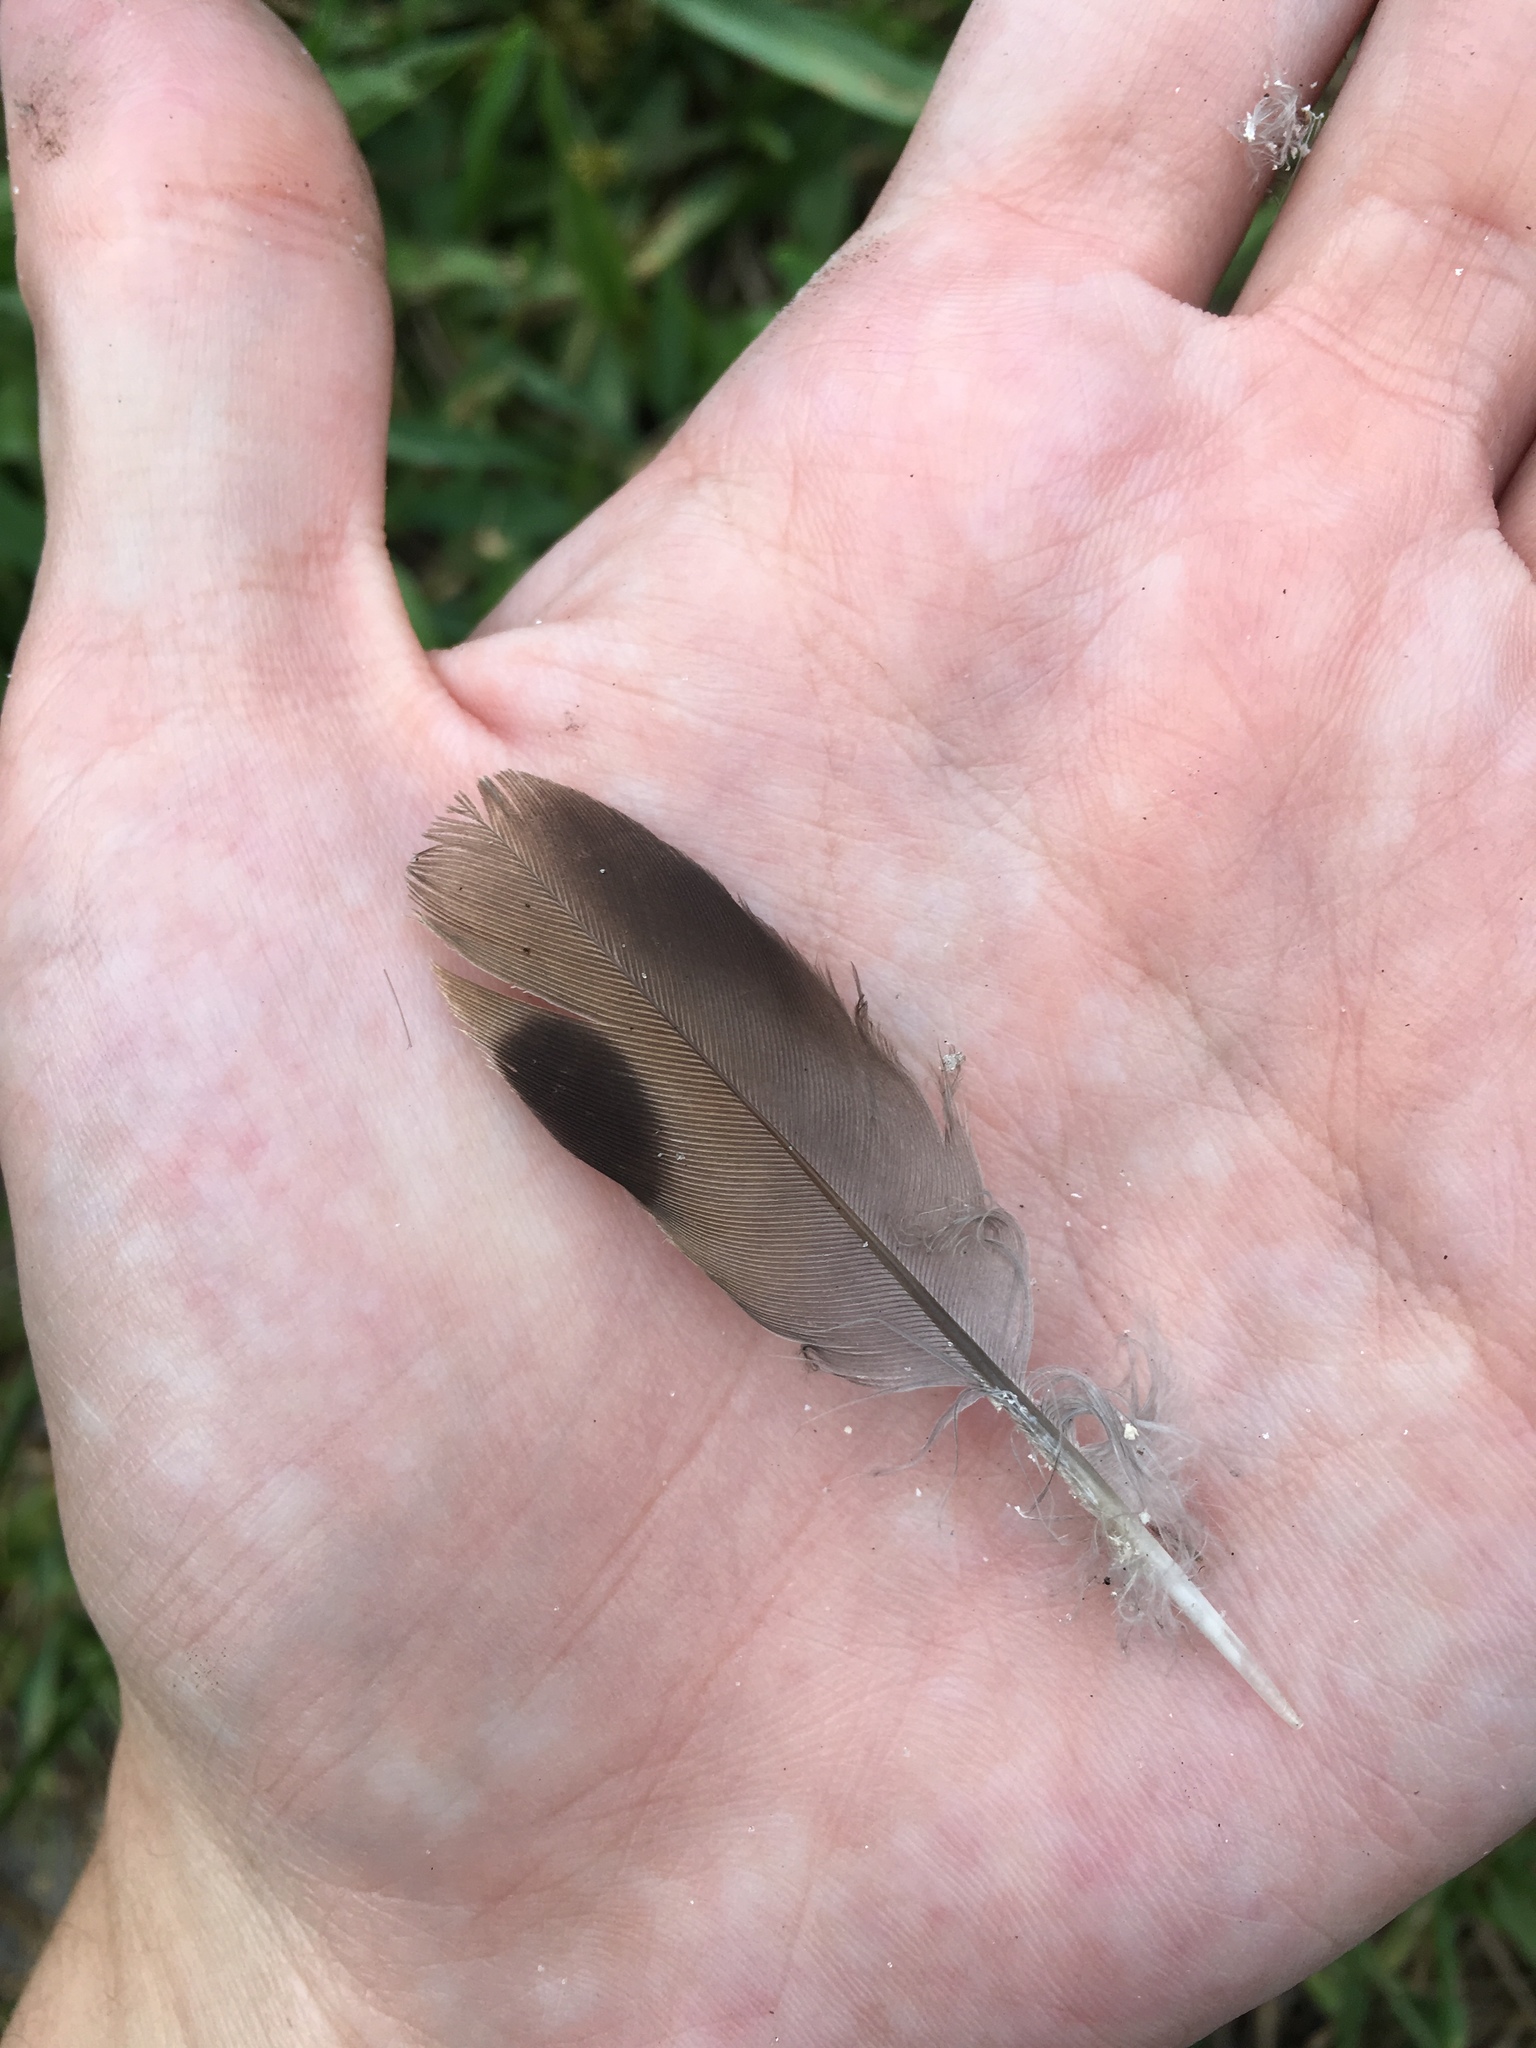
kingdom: Animalia
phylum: Chordata
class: Aves
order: Columbiformes
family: Columbidae
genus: Zenaida
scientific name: Zenaida macroura
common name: Mourning dove
